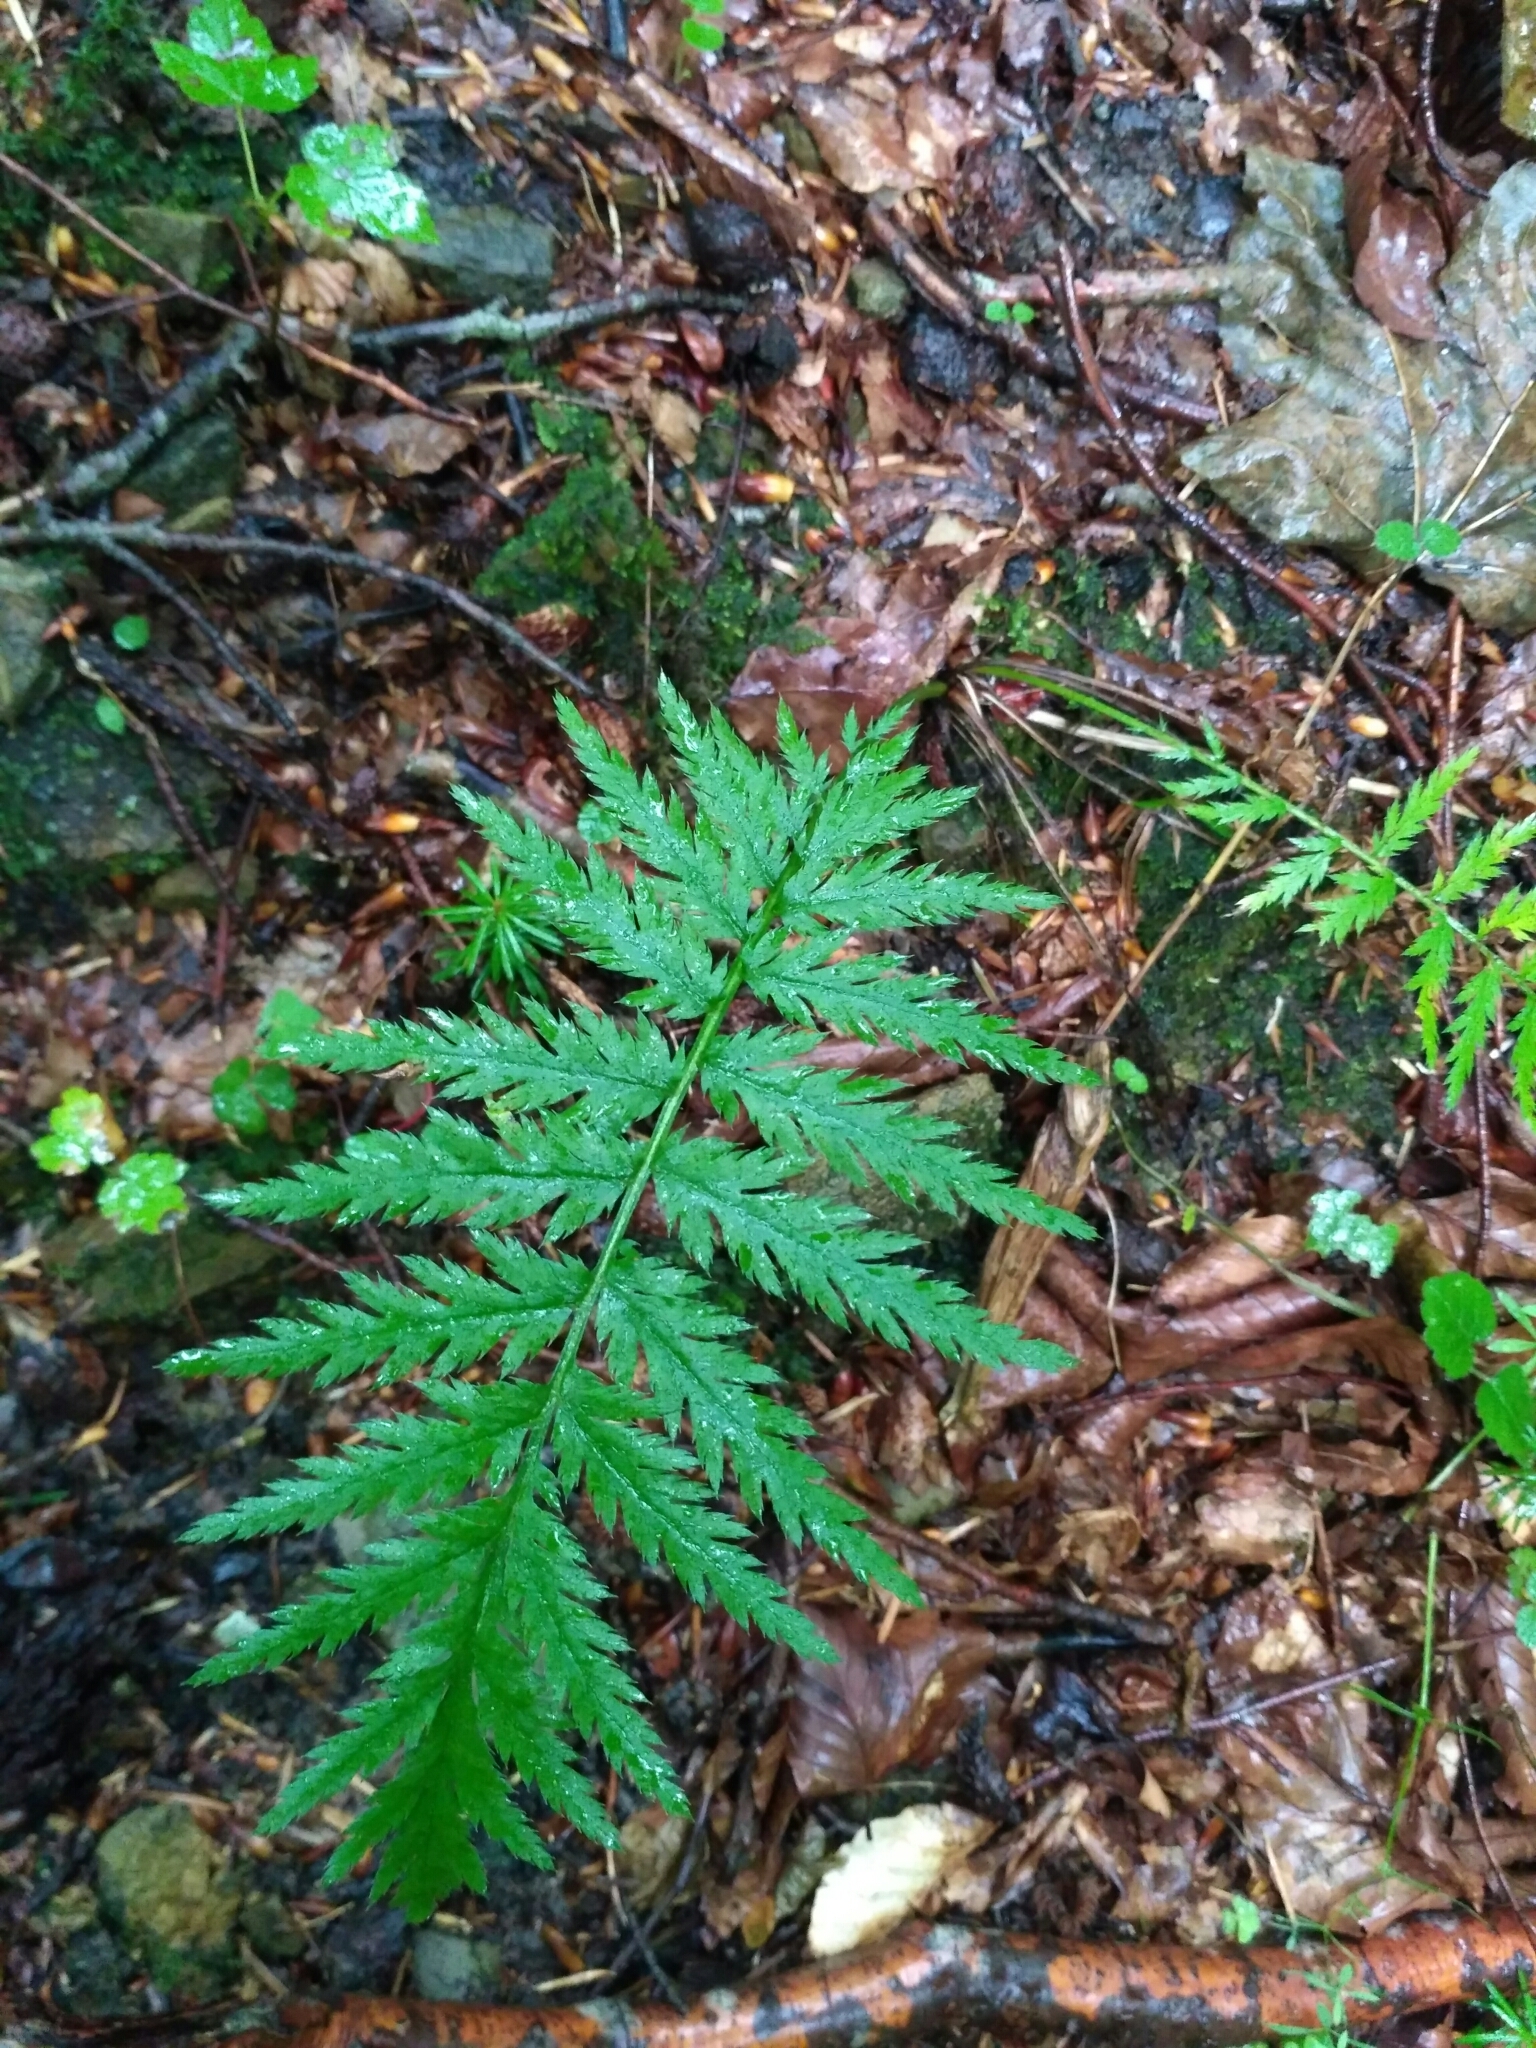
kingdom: Plantae
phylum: Tracheophyta
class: Magnoliopsida
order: Asterales
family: Asteraceae
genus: Tanacetum
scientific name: Tanacetum corymbosum
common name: Scentless feverfew
